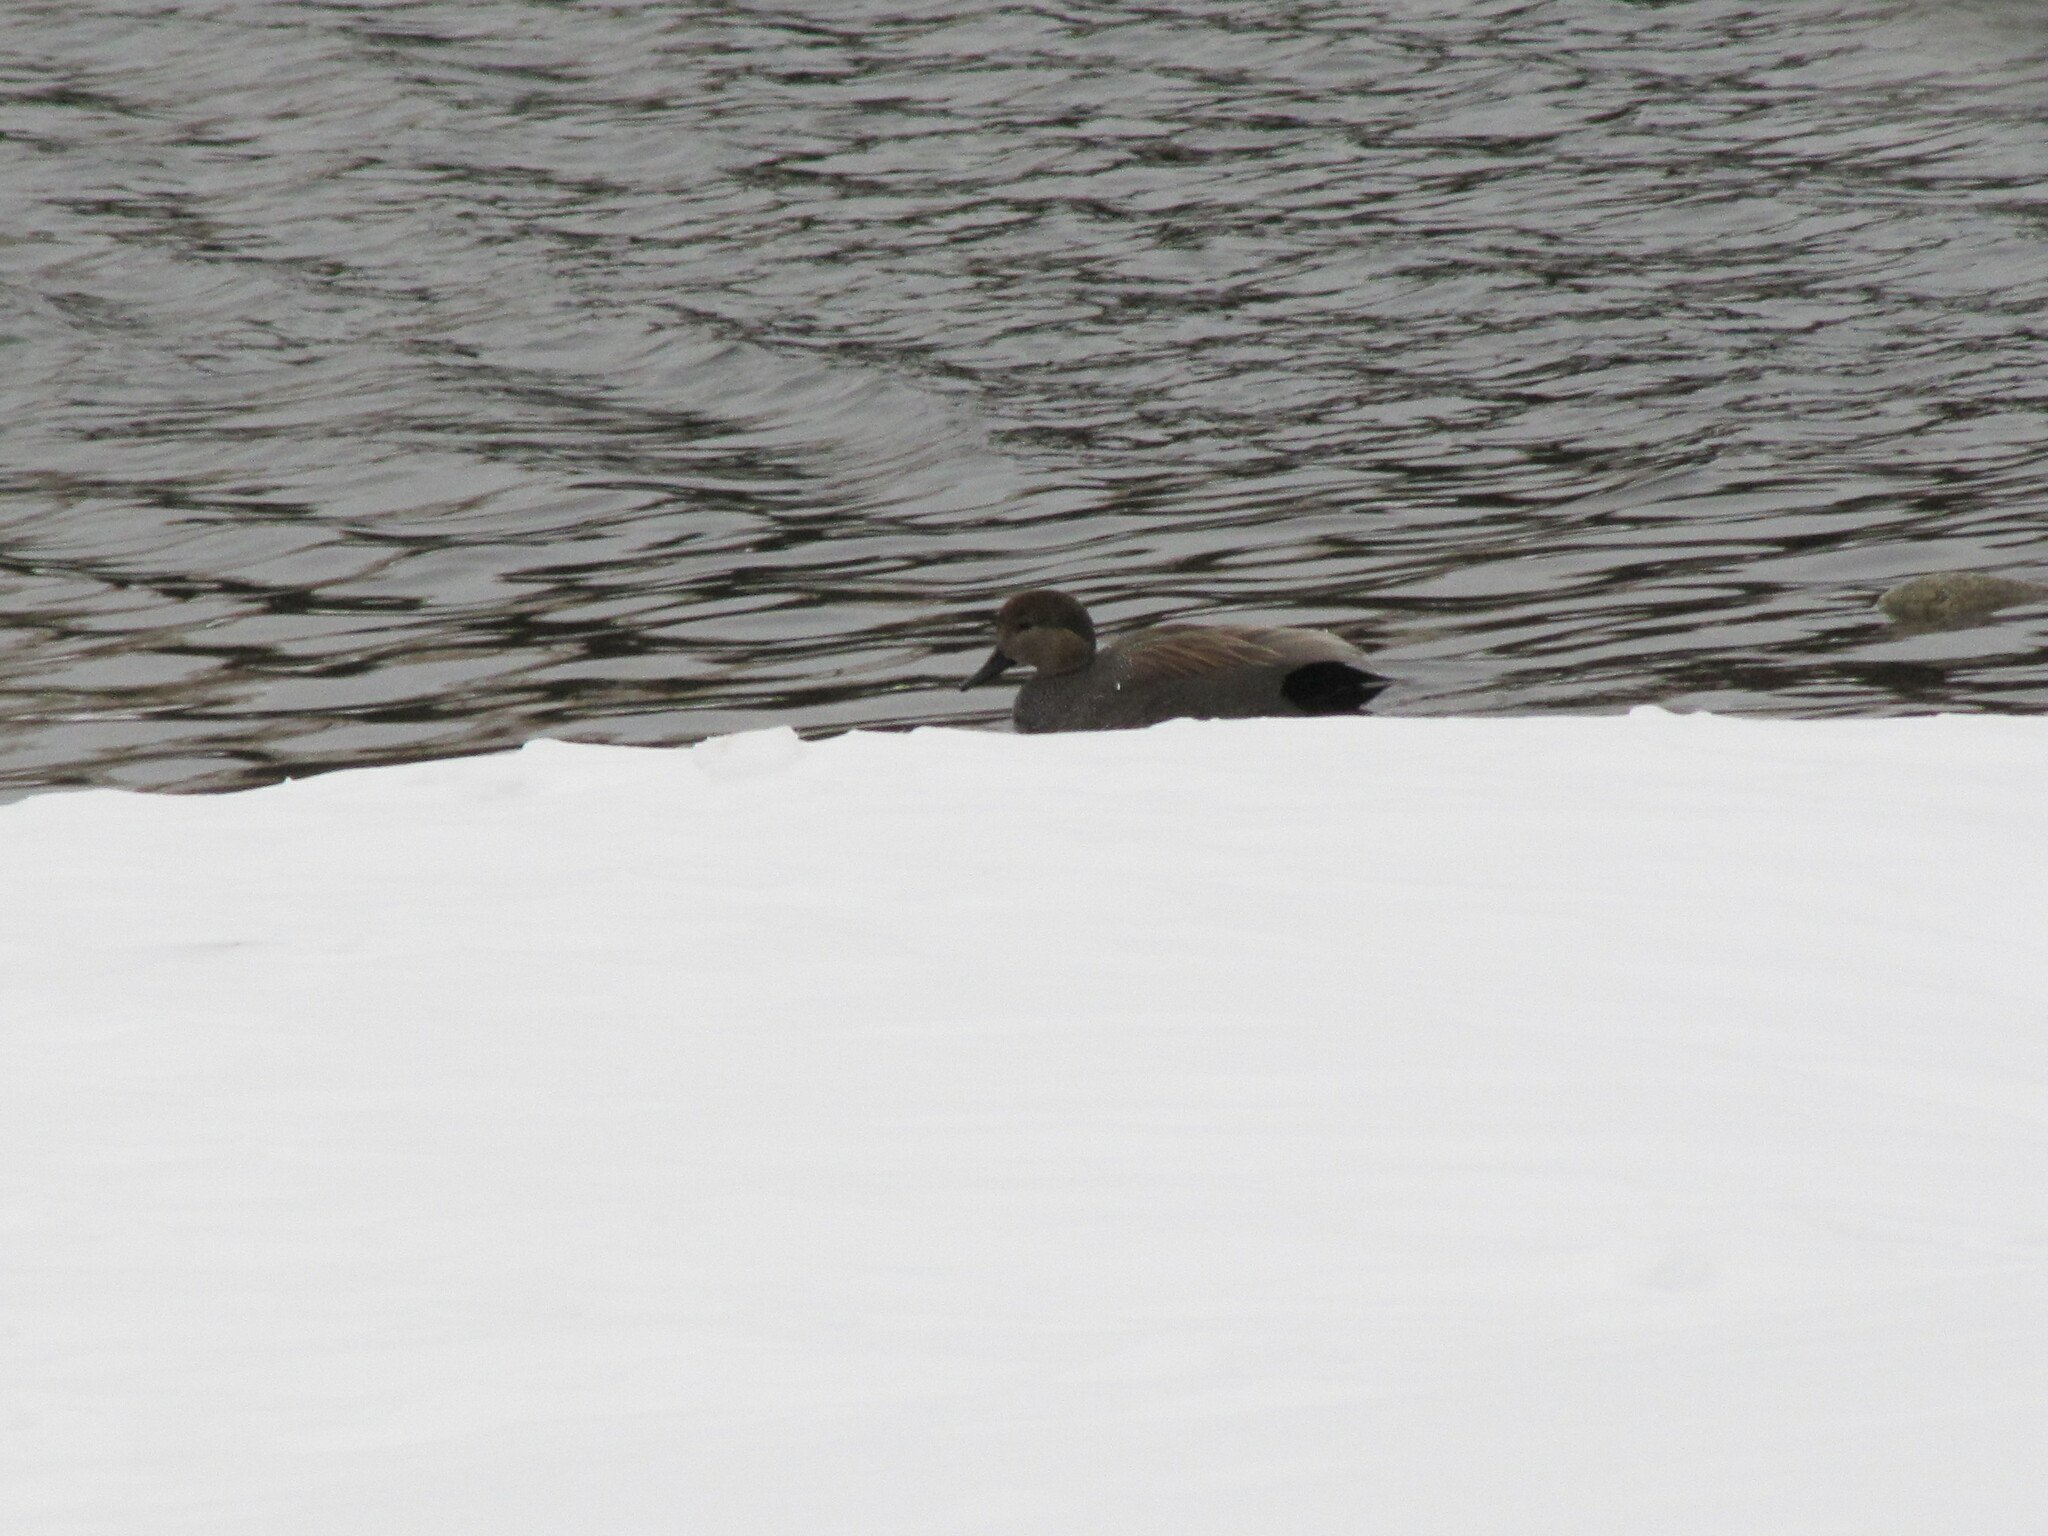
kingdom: Animalia
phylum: Chordata
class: Aves
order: Anseriformes
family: Anatidae
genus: Mareca
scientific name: Mareca strepera
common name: Gadwall
